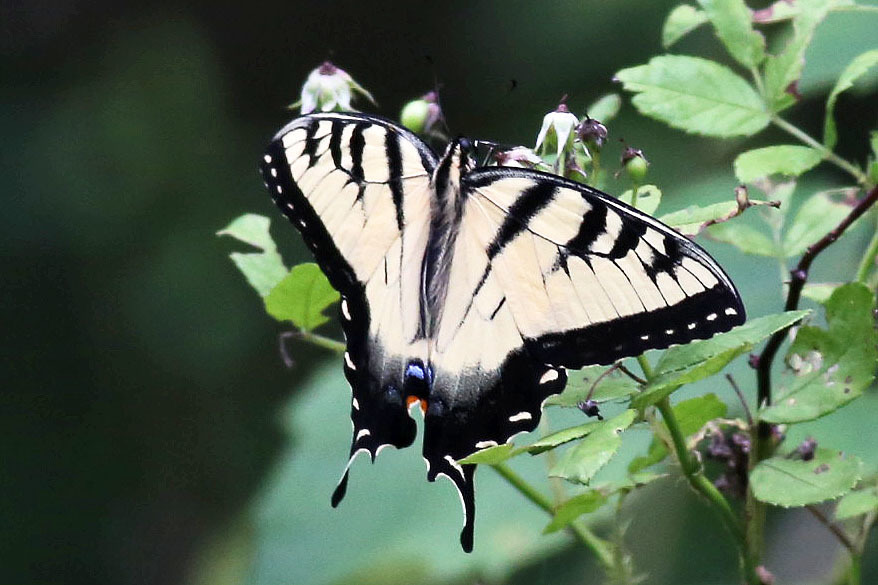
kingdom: Animalia
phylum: Arthropoda
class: Insecta
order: Lepidoptera
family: Papilionidae
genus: Papilio
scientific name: Papilio glaucus
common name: Tiger swallowtail
